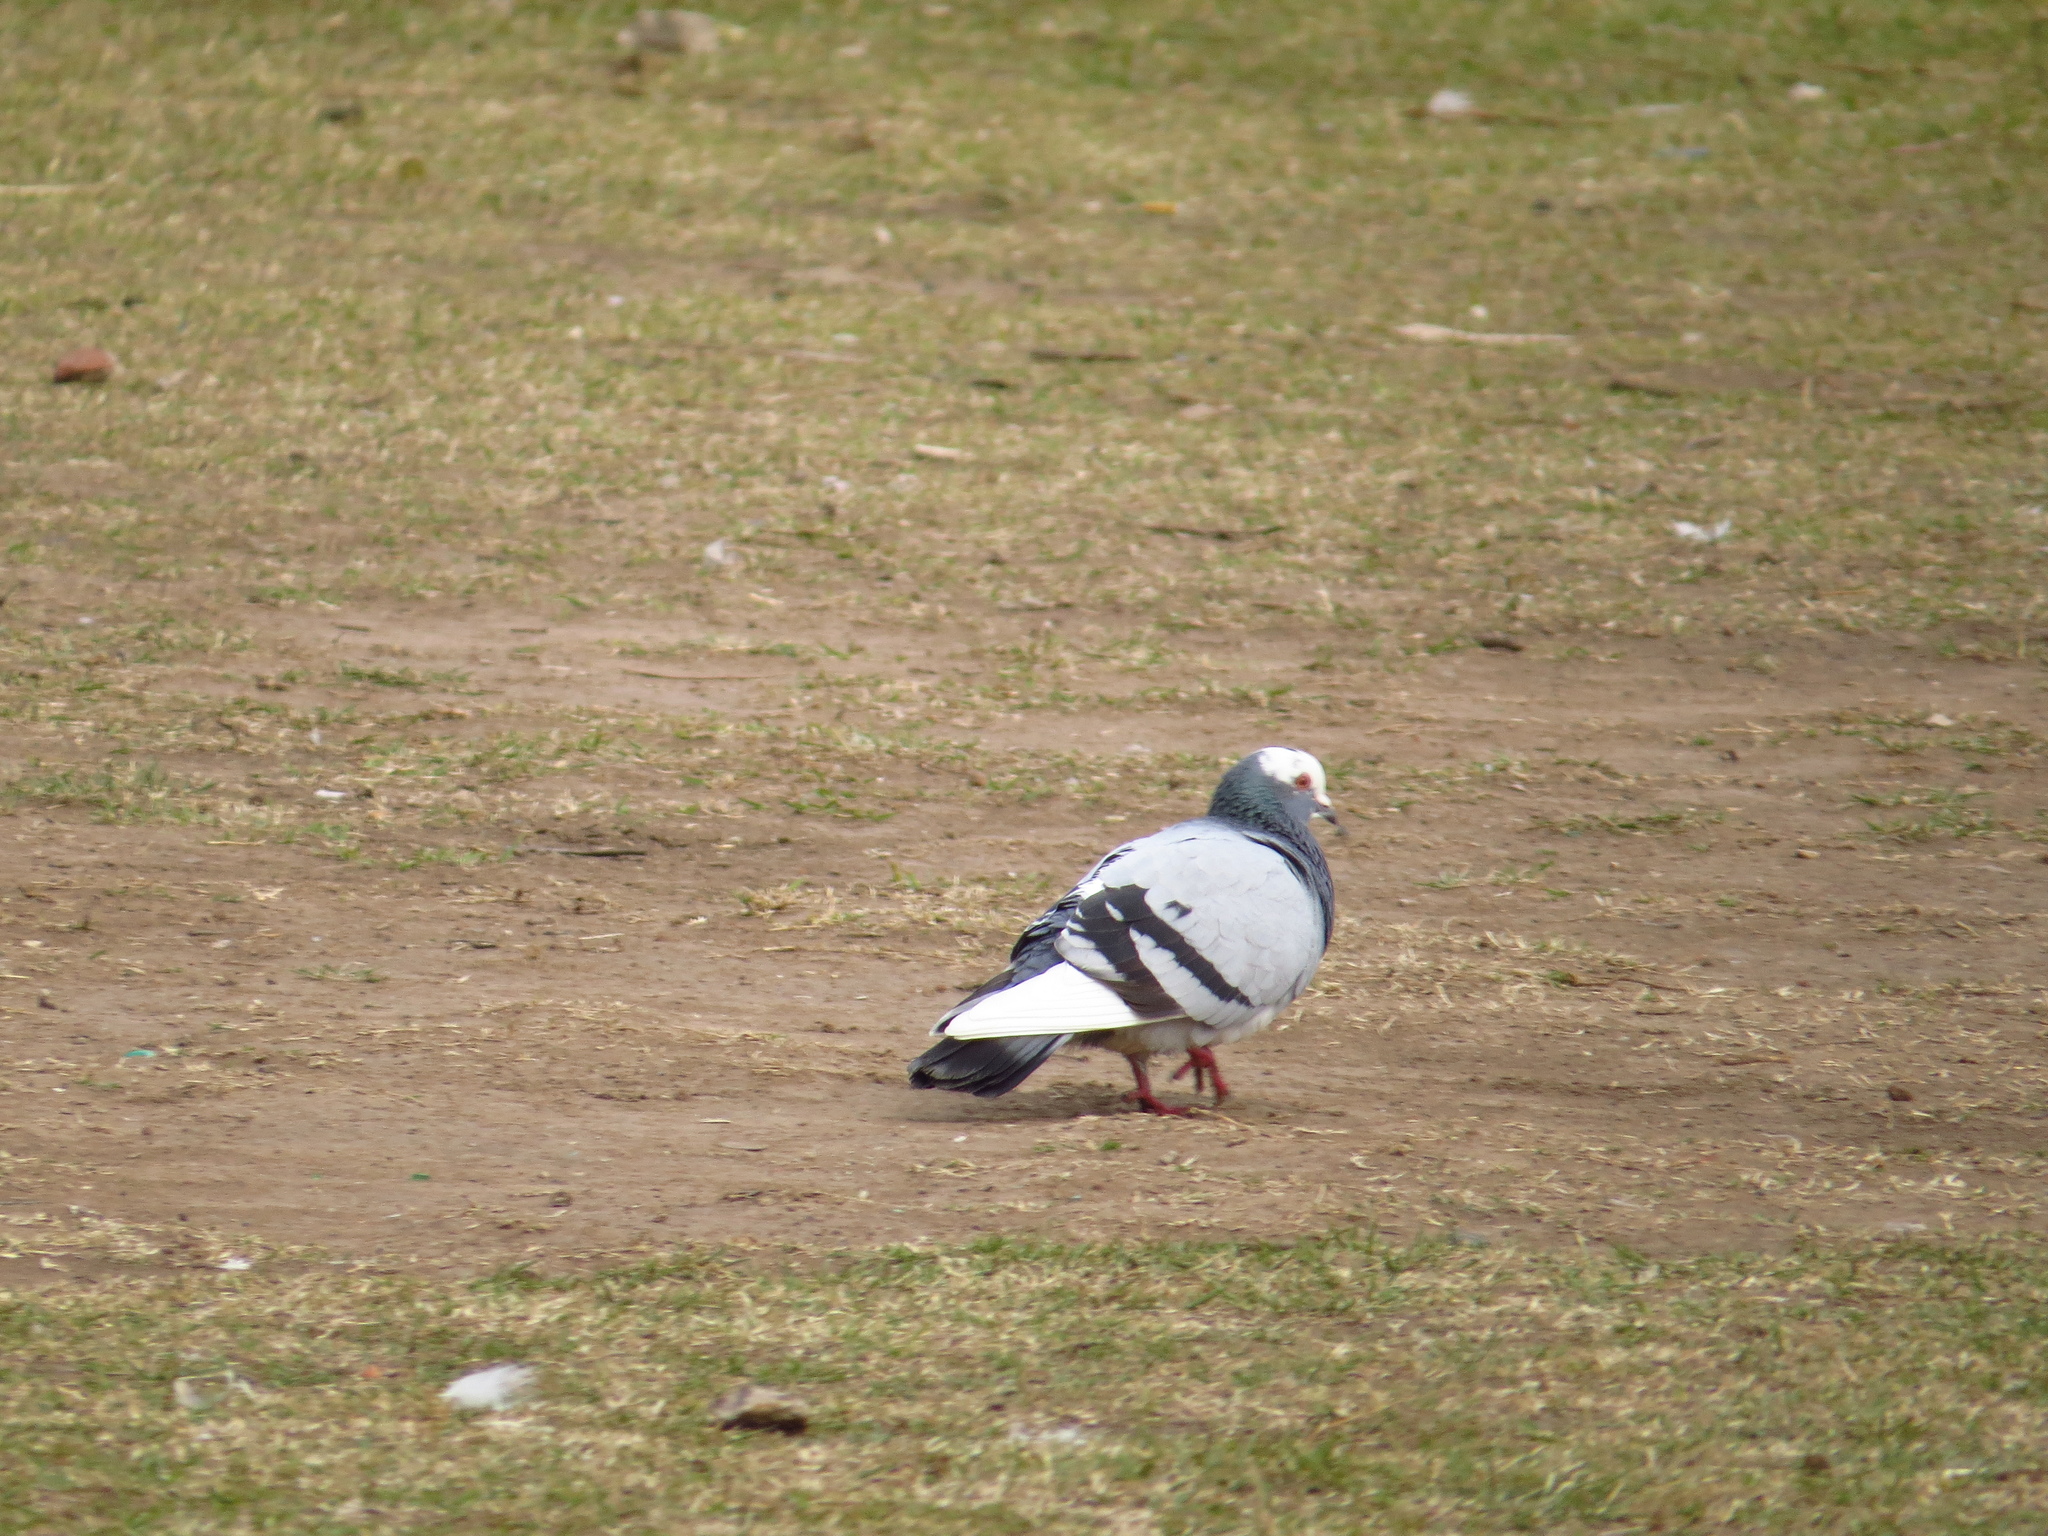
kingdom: Animalia
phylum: Chordata
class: Aves
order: Columbiformes
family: Columbidae
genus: Columba
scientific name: Columba livia
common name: Rock pigeon
